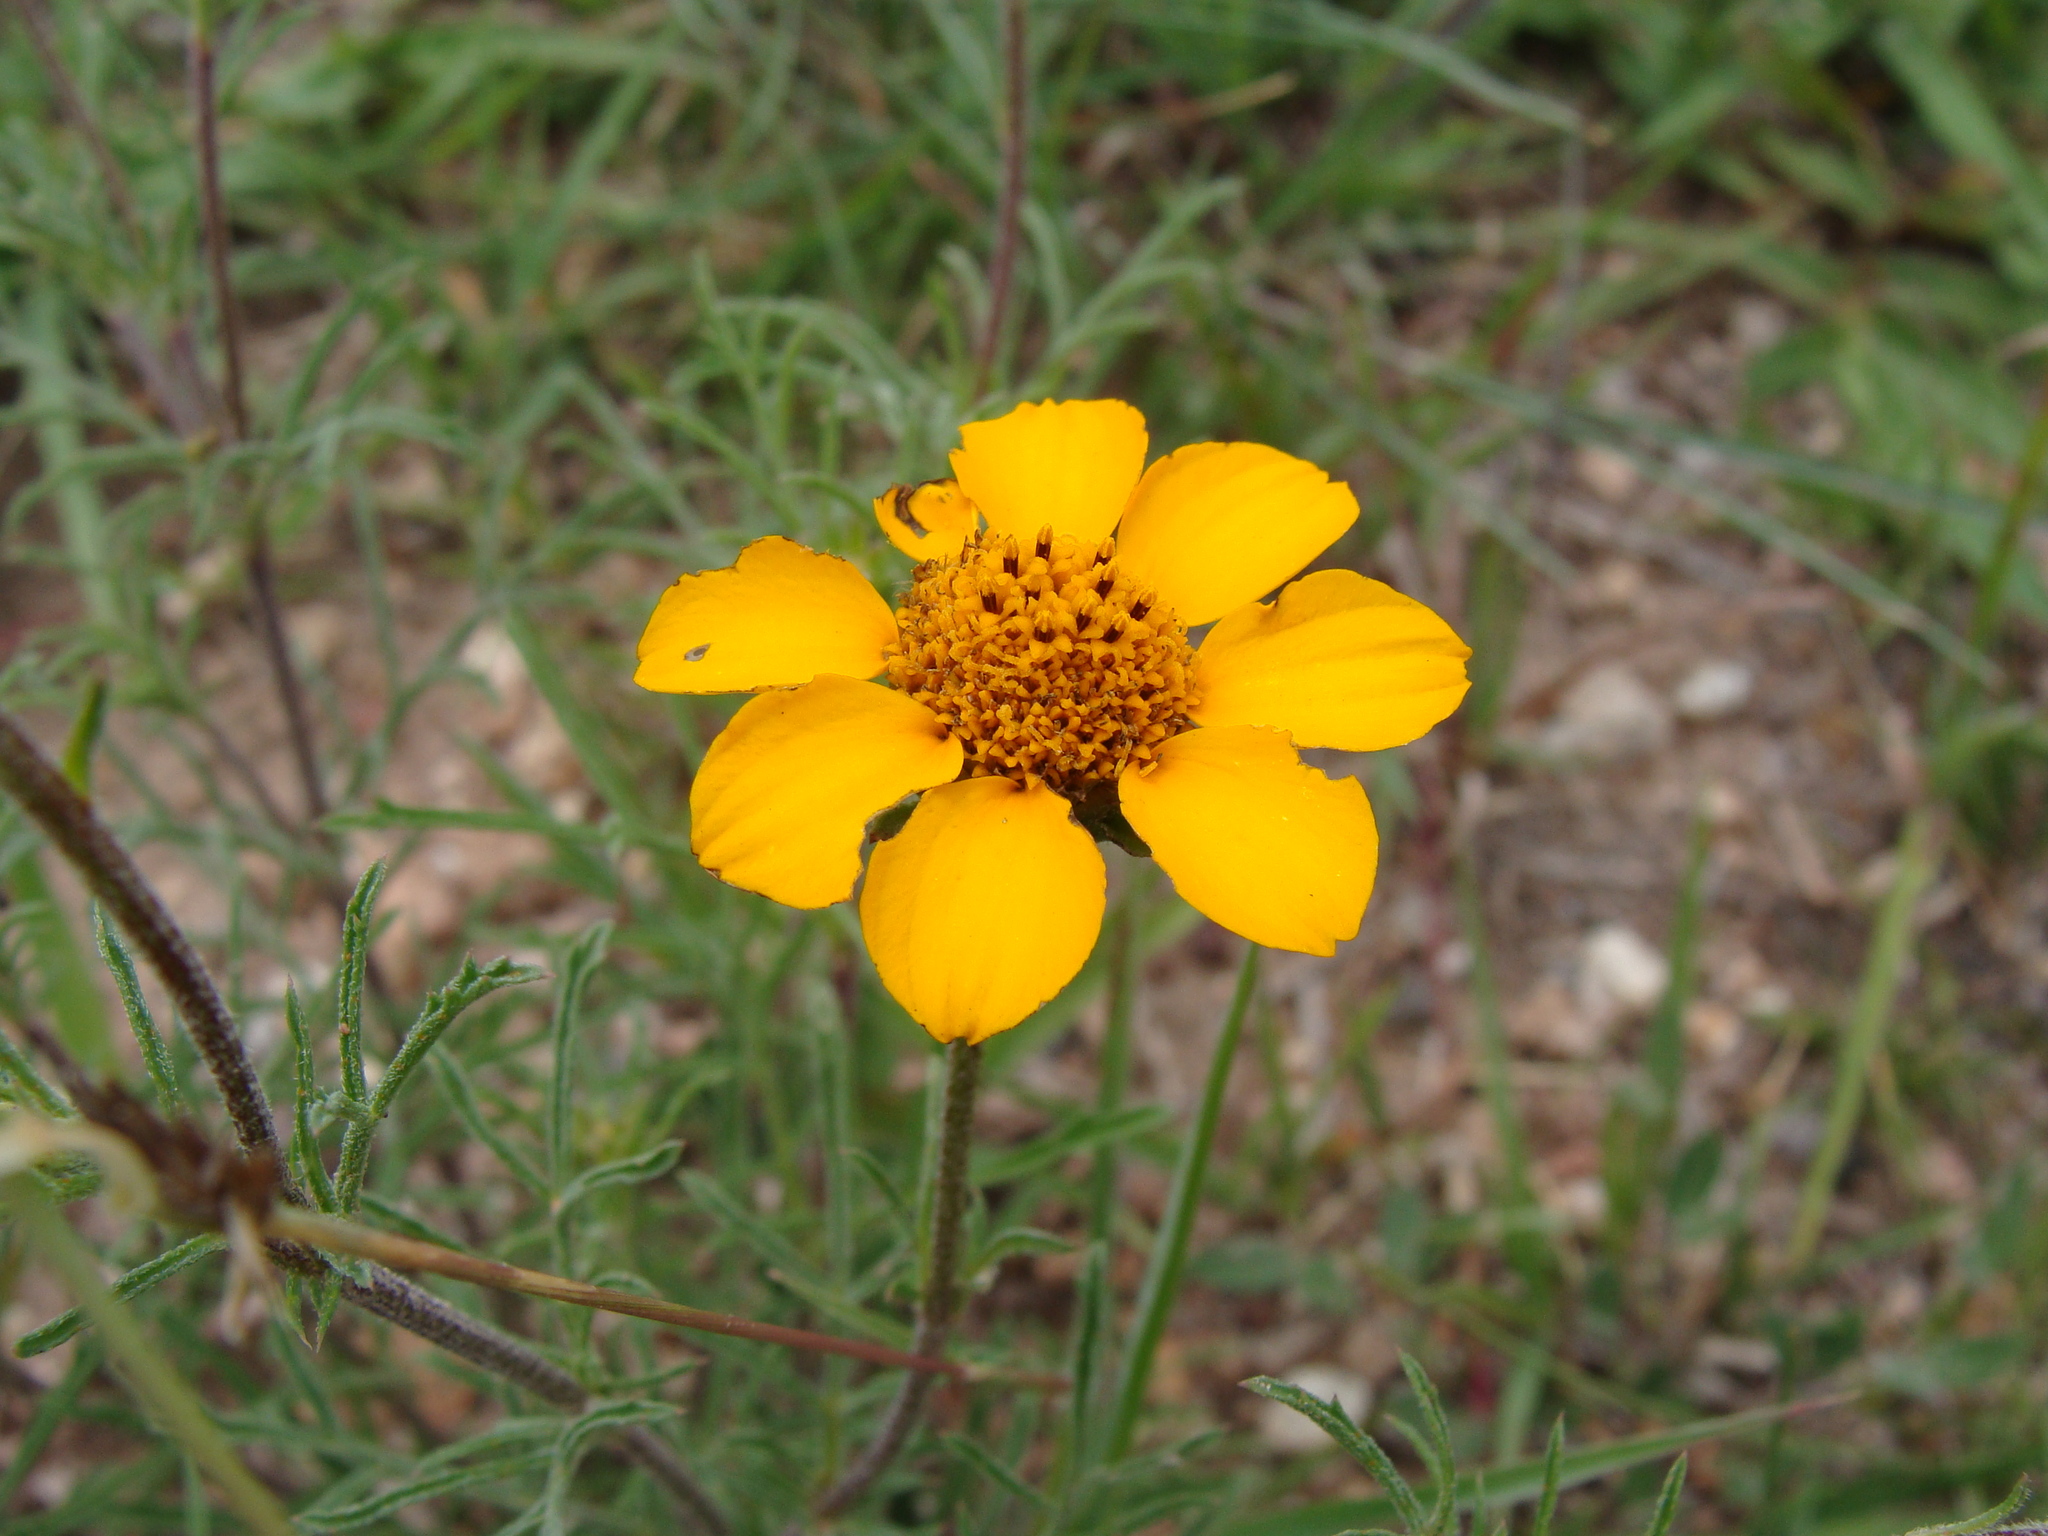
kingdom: Plantae
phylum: Tracheophyta
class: Magnoliopsida
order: Asterales
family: Asteraceae
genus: Dyssodia
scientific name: Dyssodia pinnata
